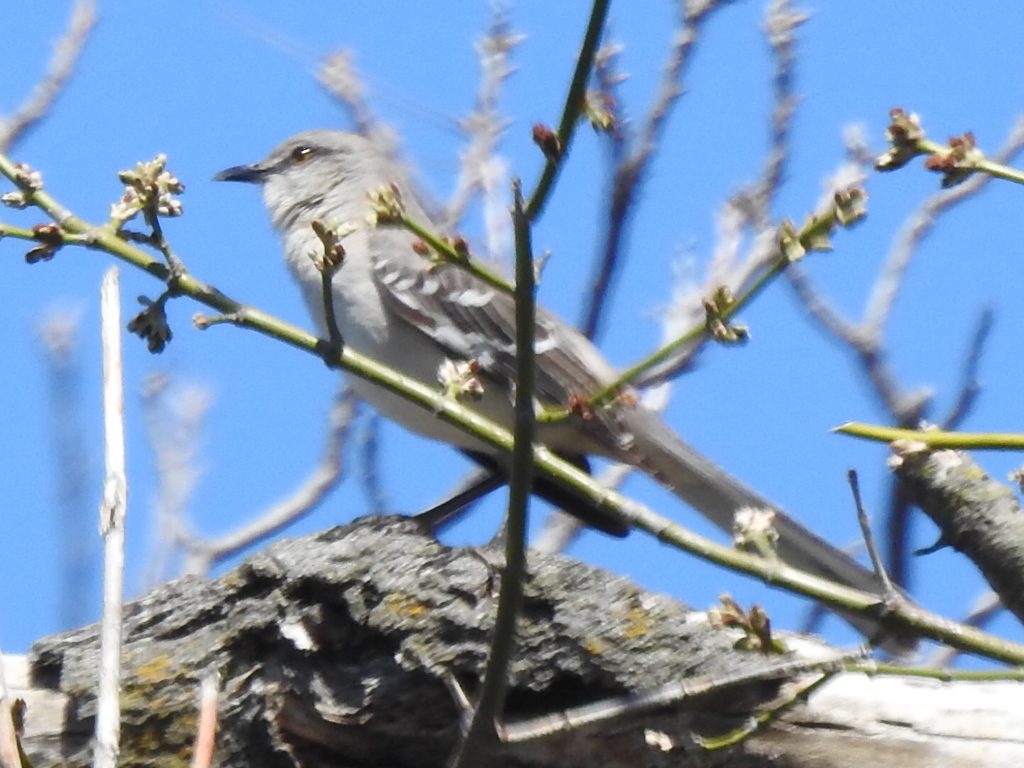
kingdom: Animalia
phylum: Chordata
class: Aves
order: Passeriformes
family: Mimidae
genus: Mimus
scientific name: Mimus polyglottos
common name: Northern mockingbird
